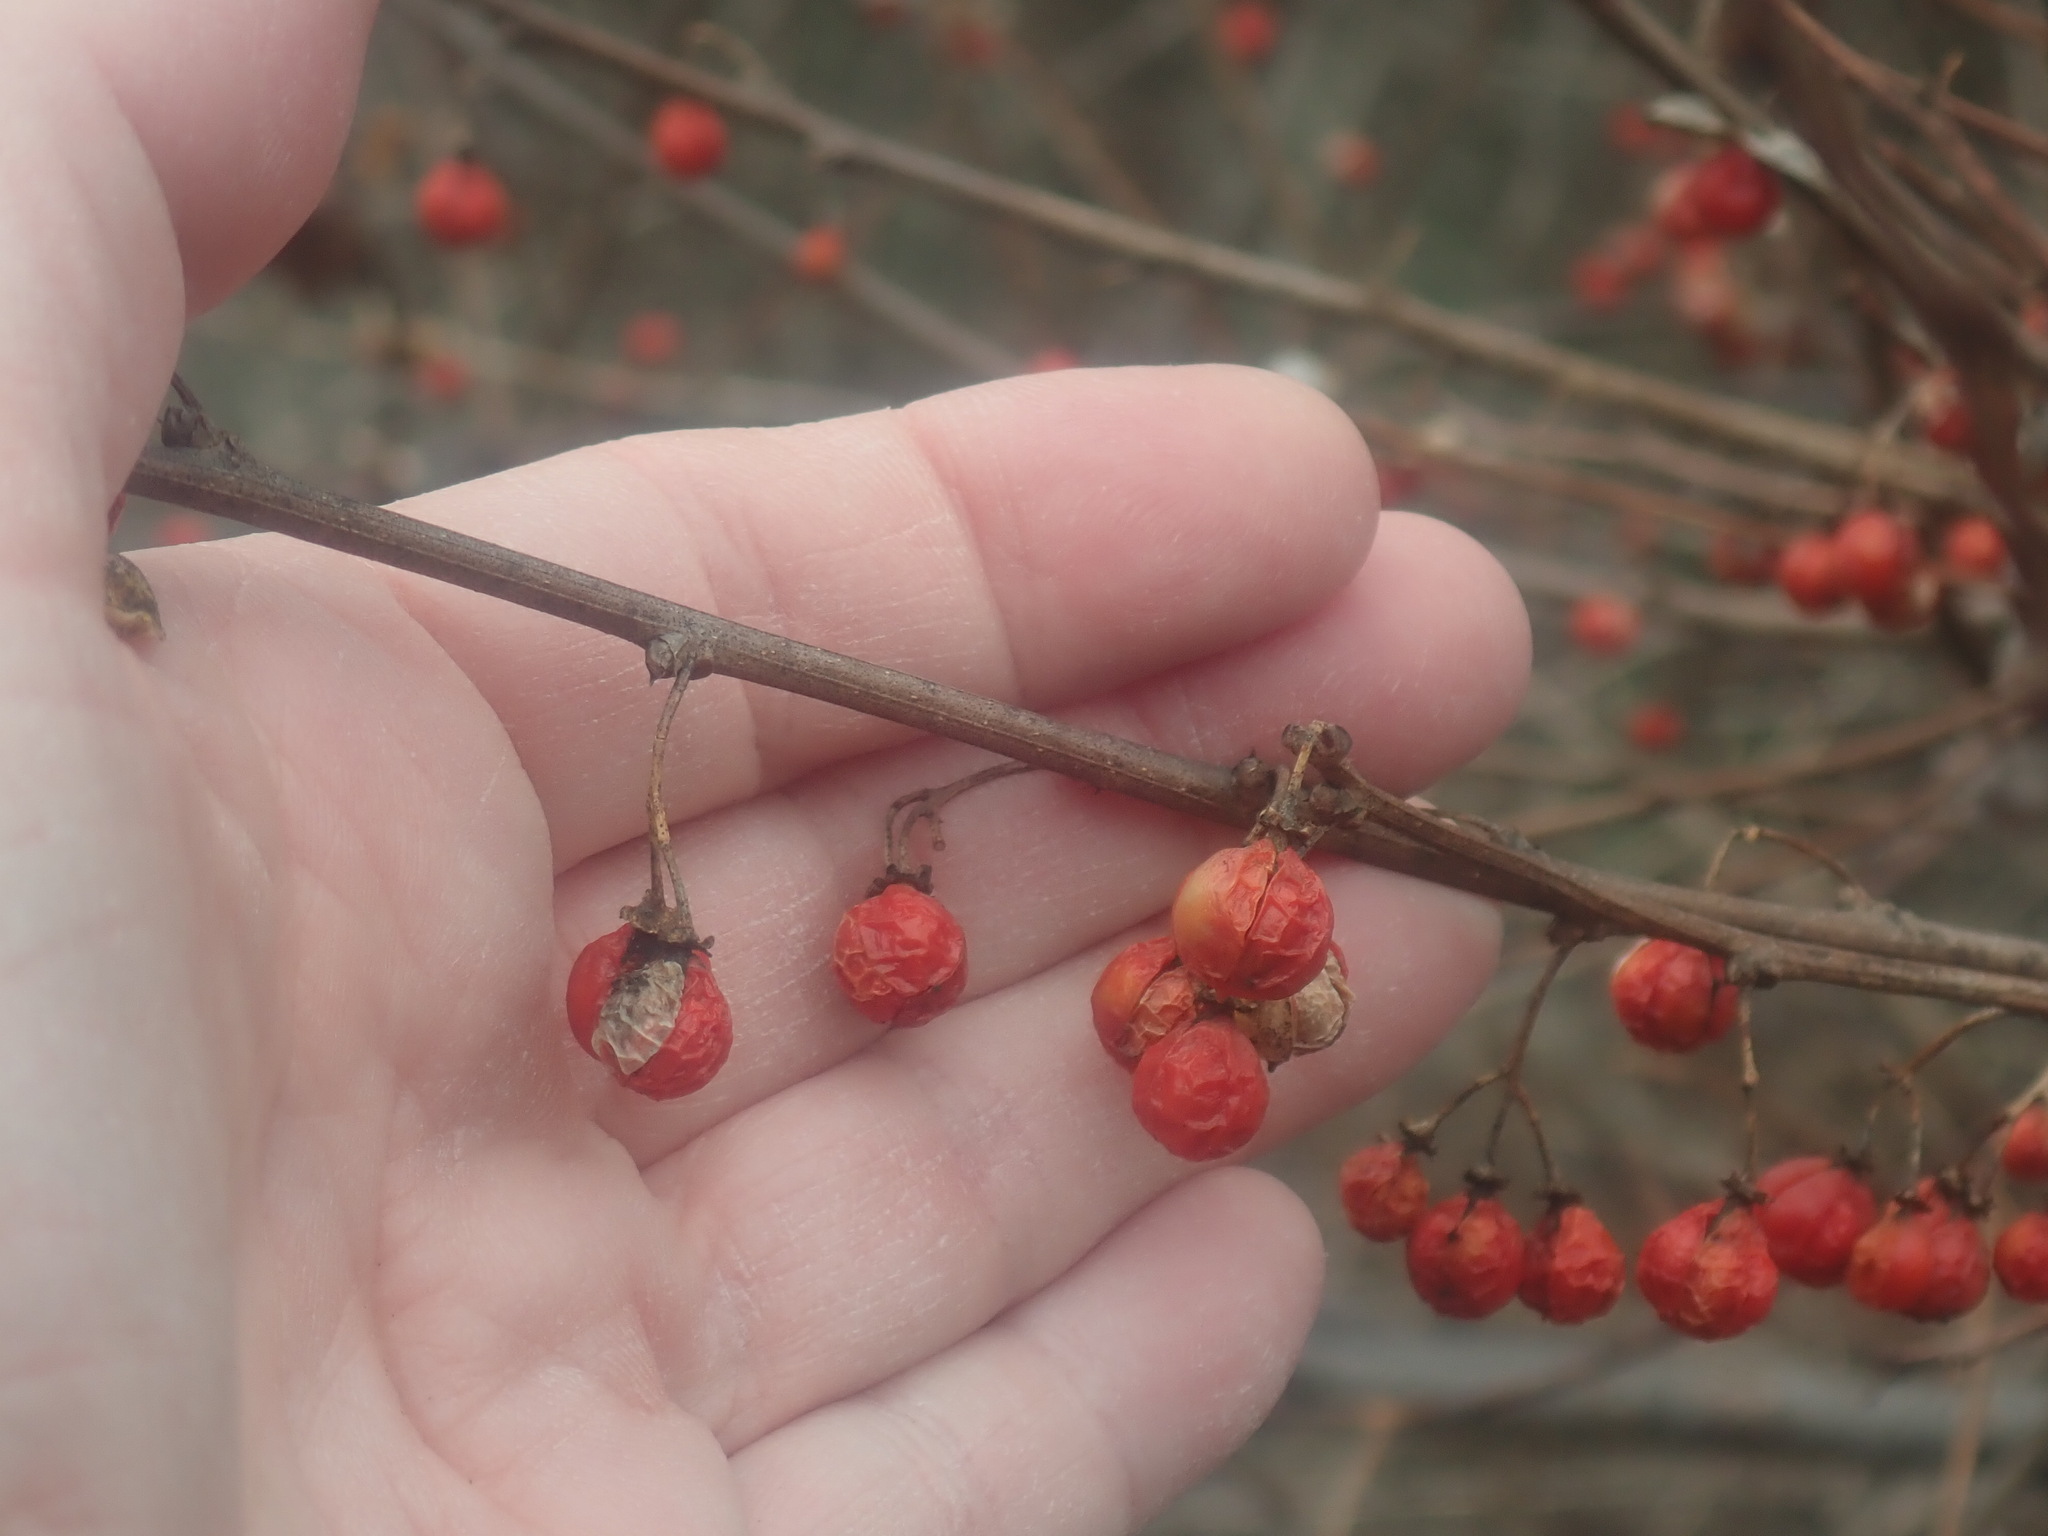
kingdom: Plantae
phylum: Tracheophyta
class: Magnoliopsida
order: Celastrales
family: Celastraceae
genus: Celastrus
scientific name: Celastrus orbiculatus
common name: Oriental bittersweet
